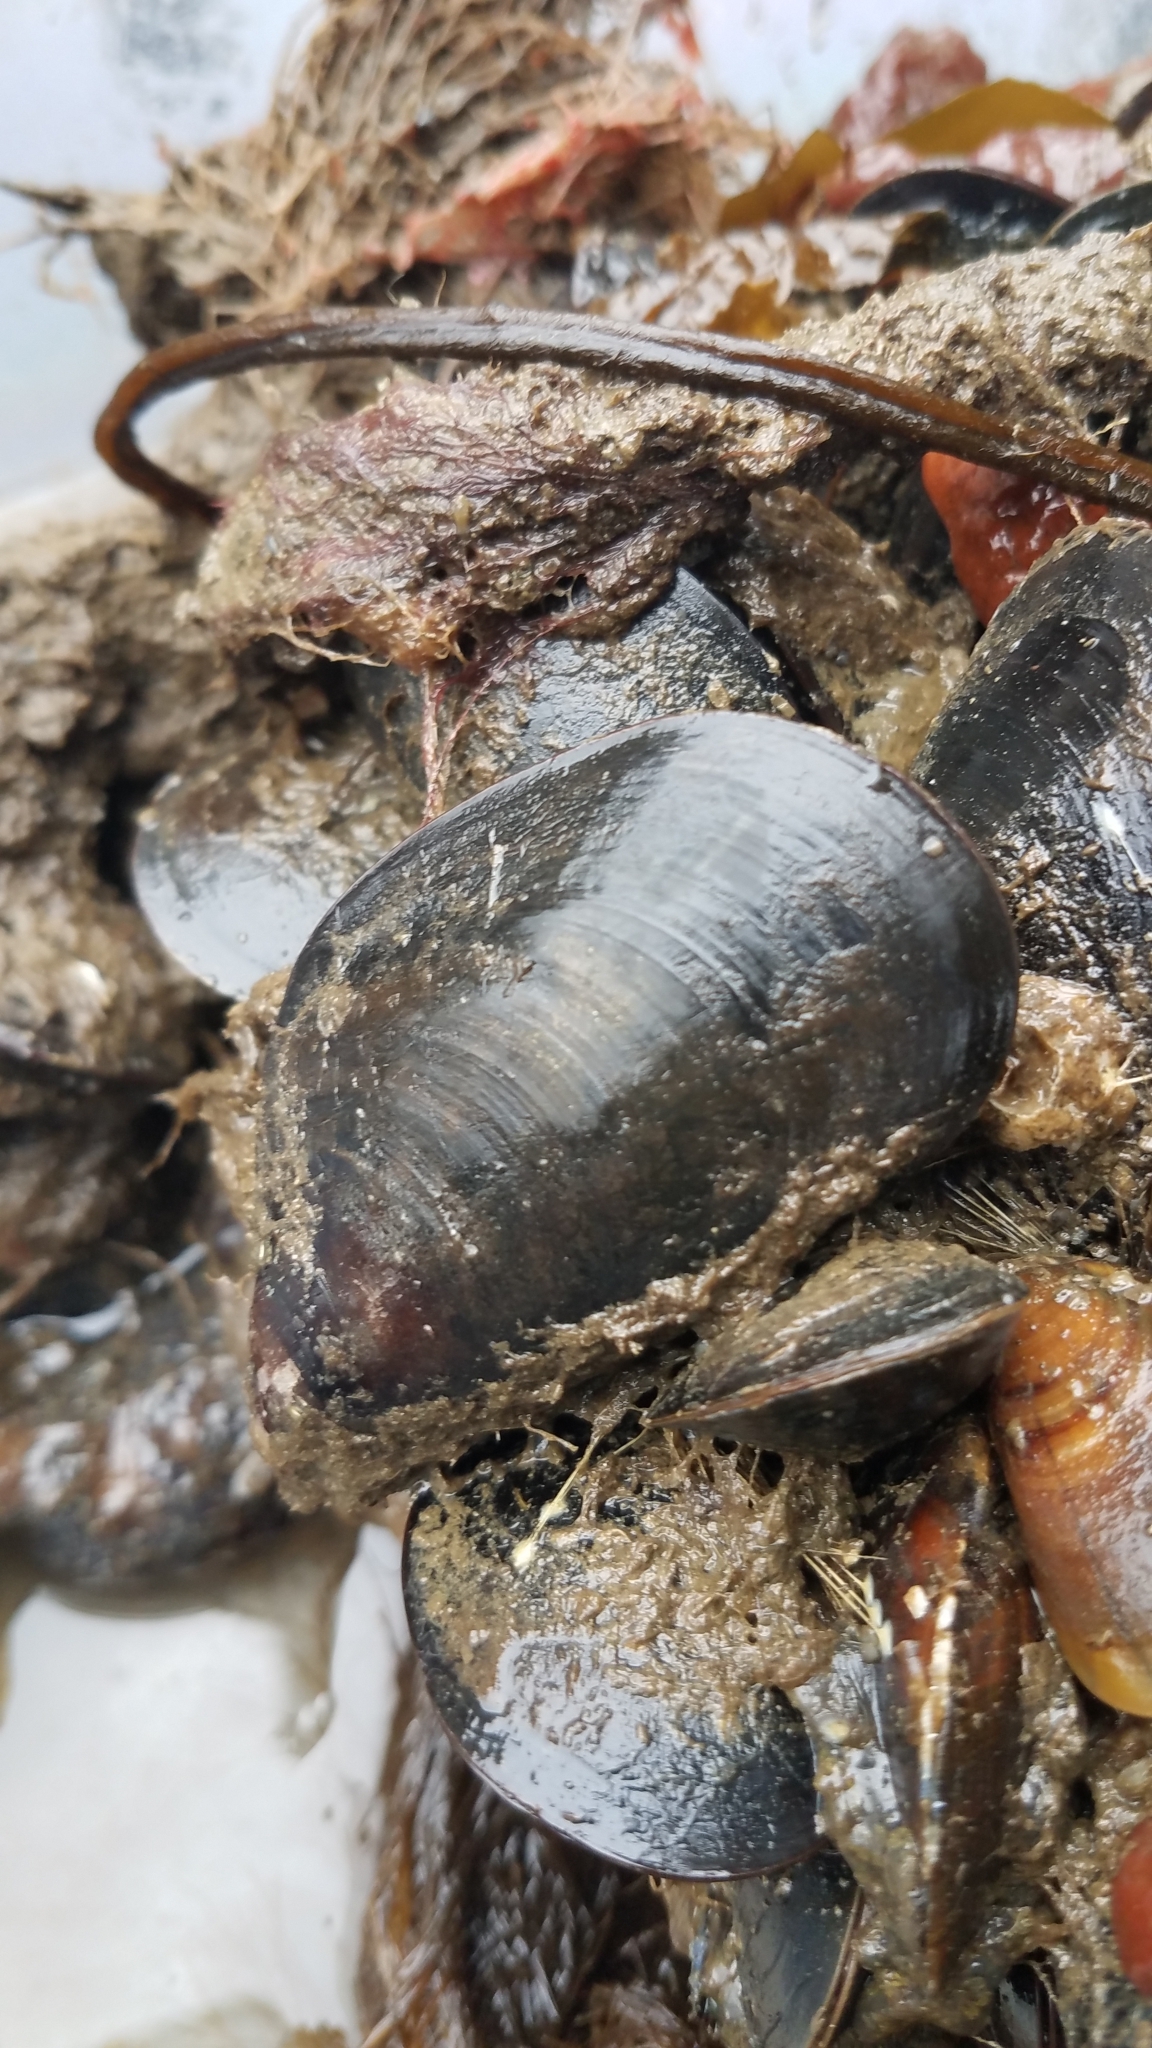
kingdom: Animalia
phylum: Mollusca
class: Bivalvia
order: Mytilida
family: Mytilidae
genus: Mytilus
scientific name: Mytilus edulis
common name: Blue mussel
